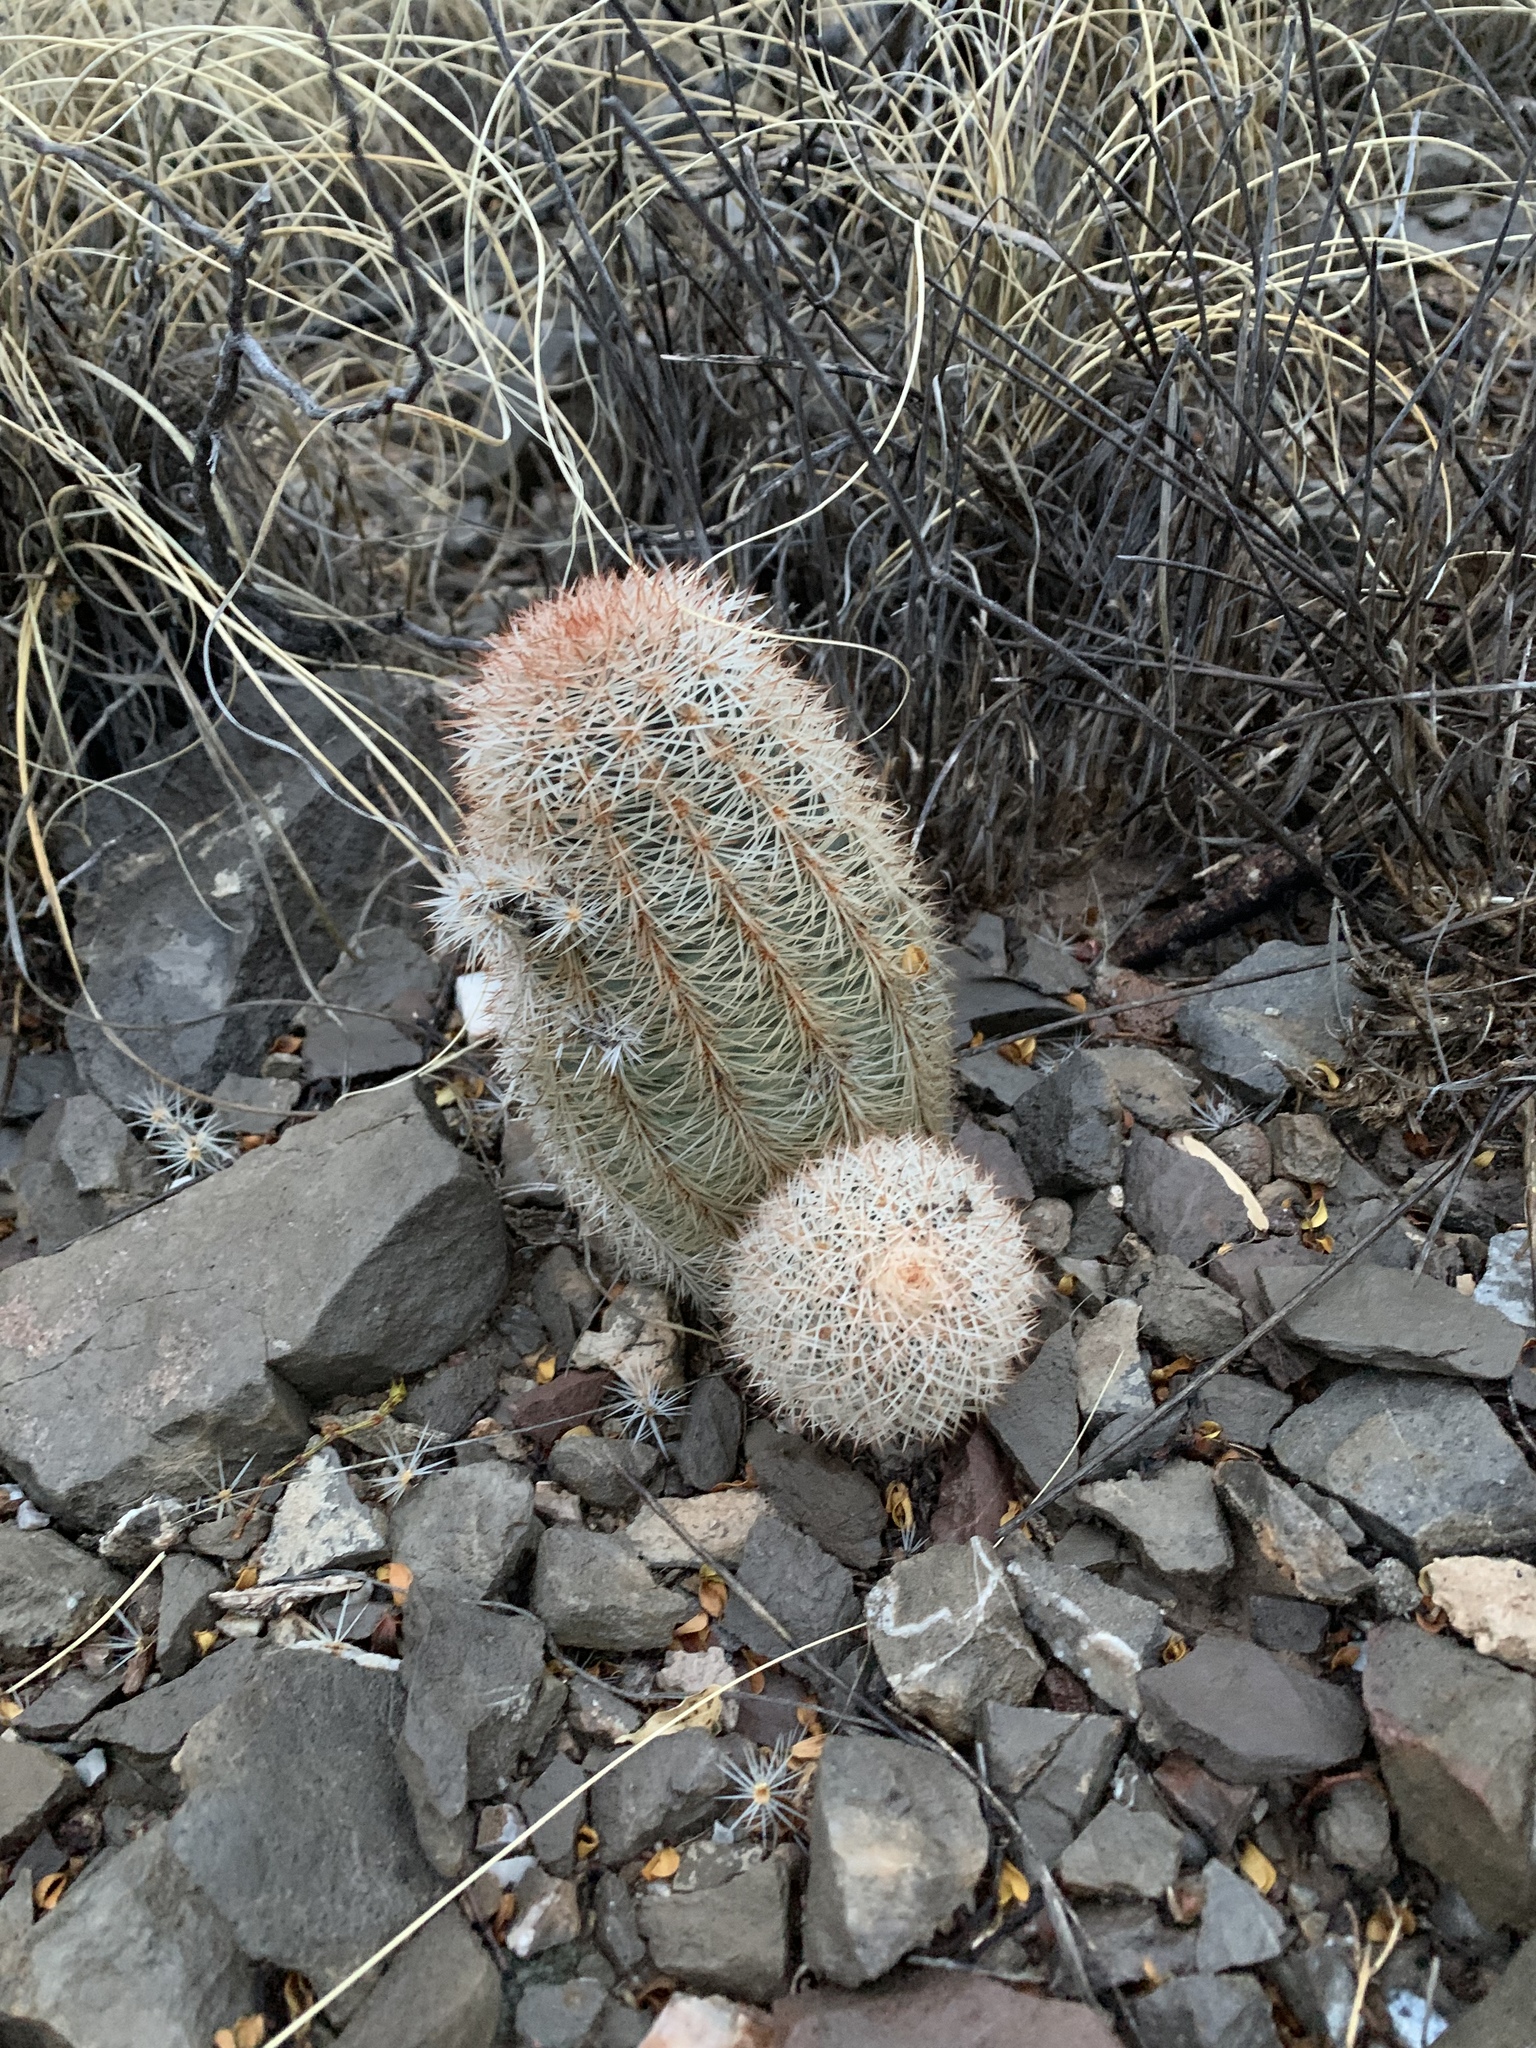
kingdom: Plantae
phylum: Tracheophyta
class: Magnoliopsida
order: Caryophyllales
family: Cactaceae
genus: Echinocereus
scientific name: Echinocereus dasyacanthus
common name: Spiny hedgehog cactus
